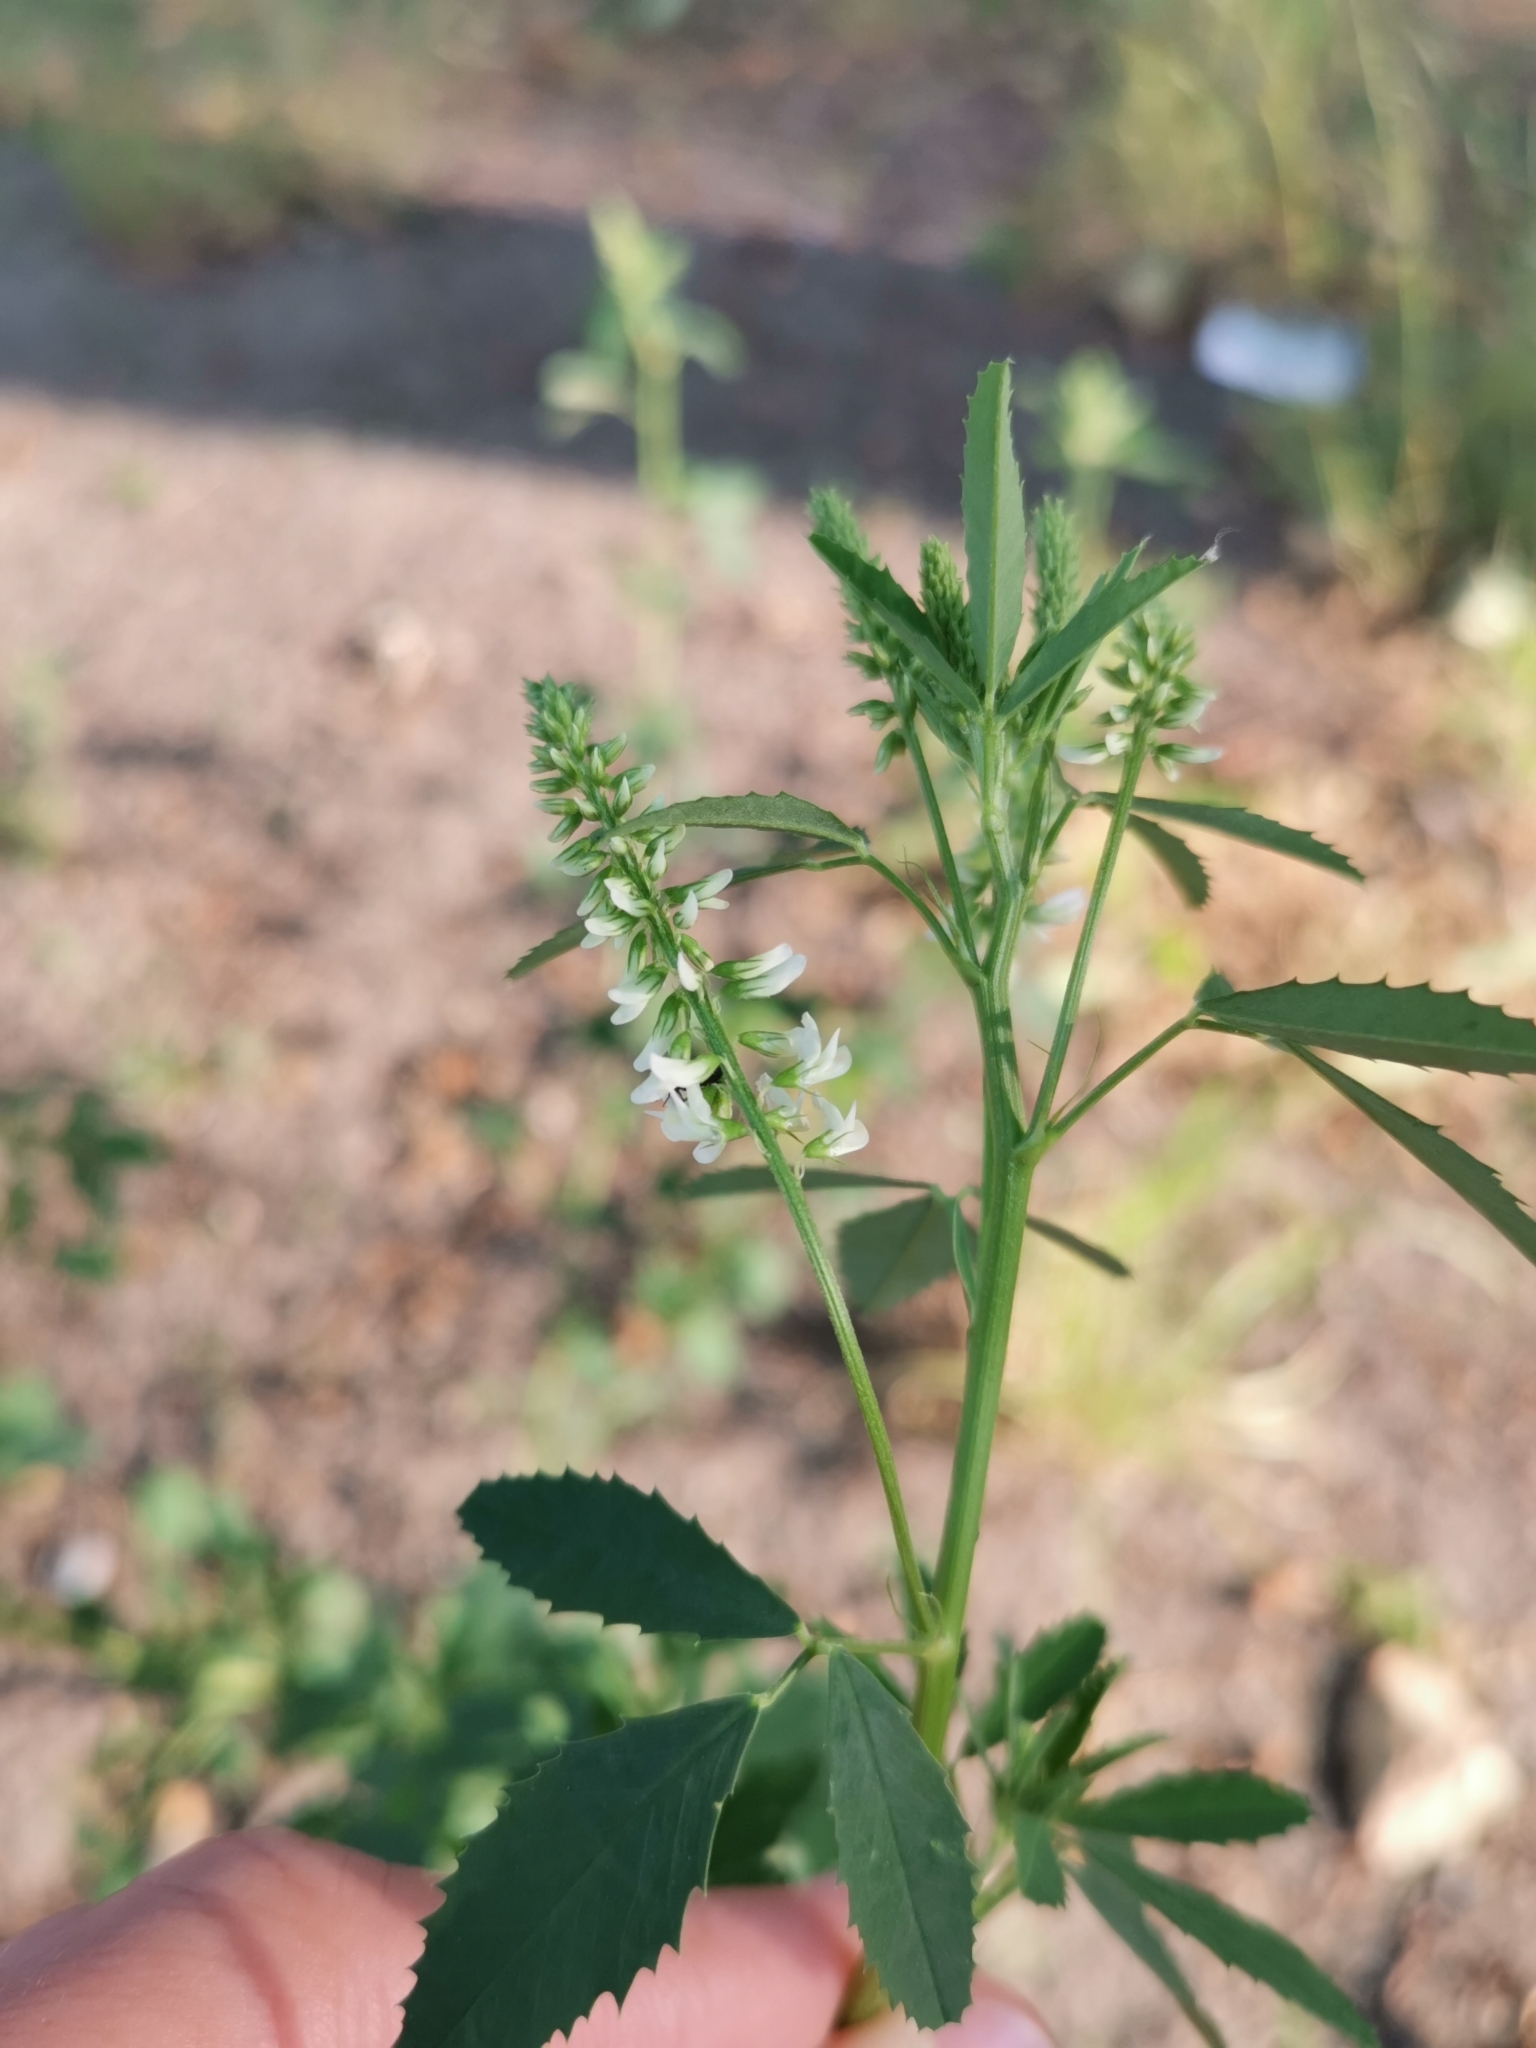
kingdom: Plantae
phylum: Tracheophyta
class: Magnoliopsida
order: Fabales
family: Fabaceae
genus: Melilotus
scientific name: Melilotus albus
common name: White melilot
